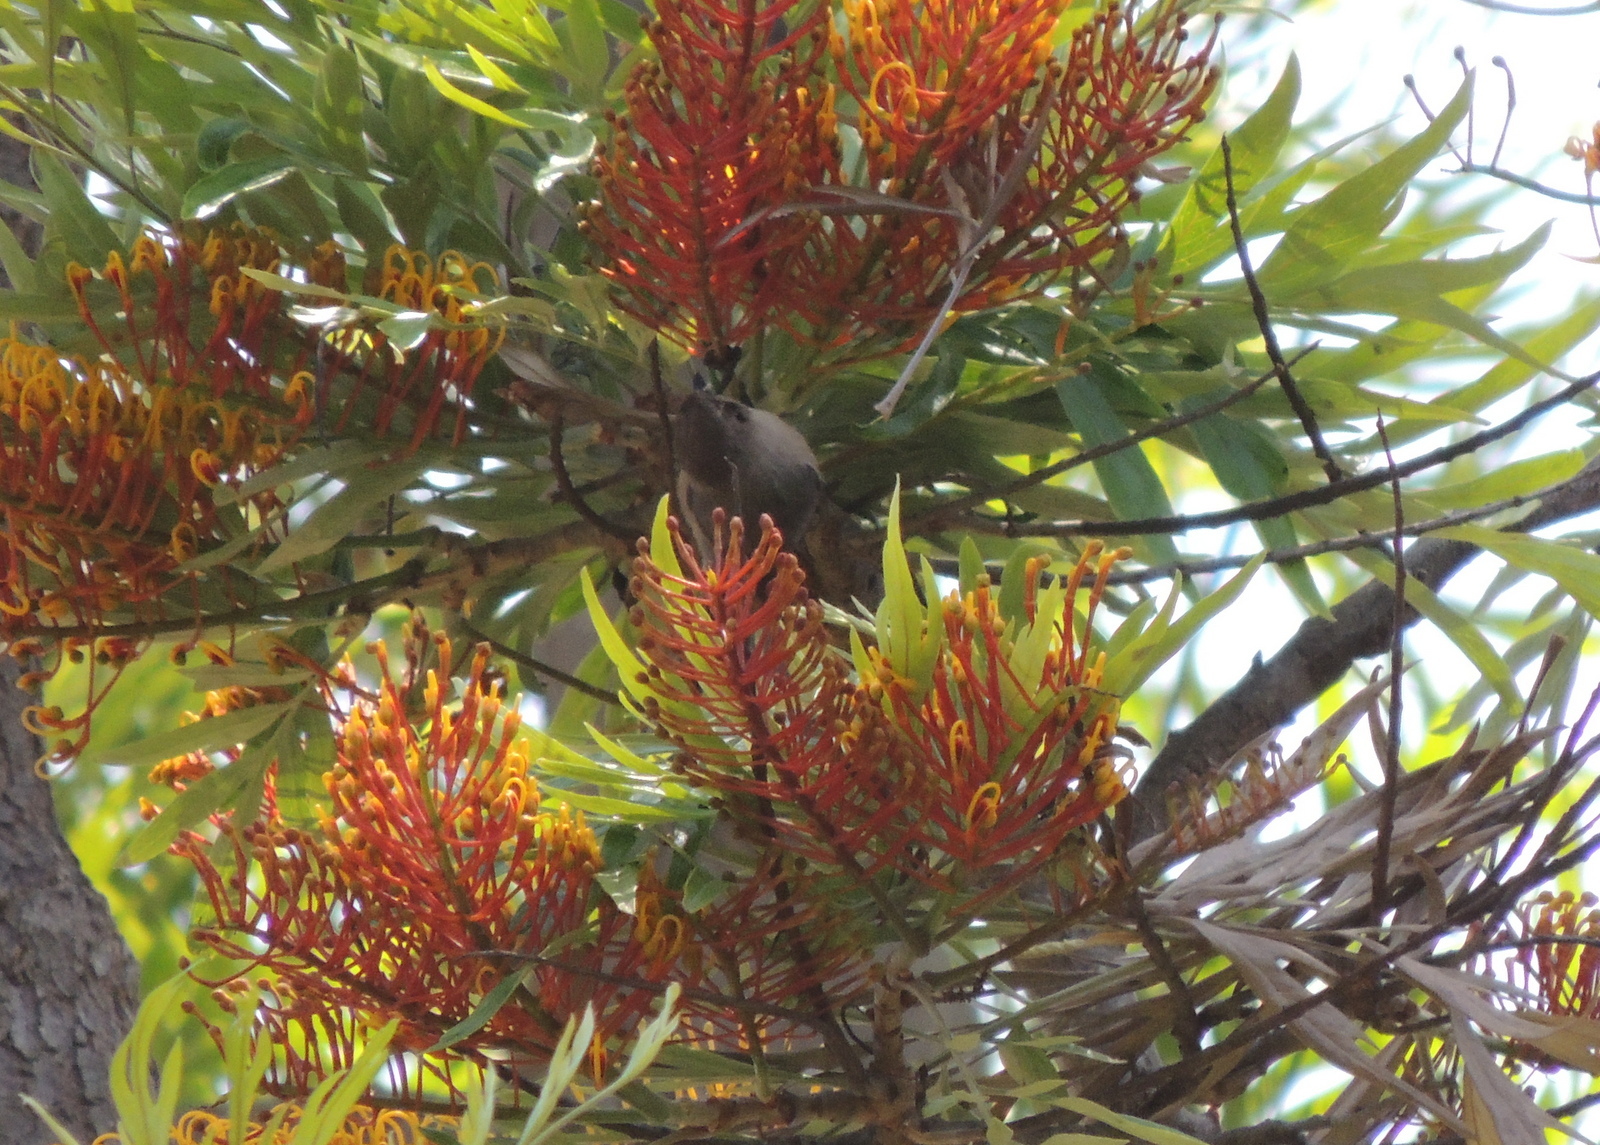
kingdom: Animalia
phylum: Chordata
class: Aves
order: Passeriformes
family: Aegithalidae
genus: Psaltriparus
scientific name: Psaltriparus minimus
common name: American bushtit
